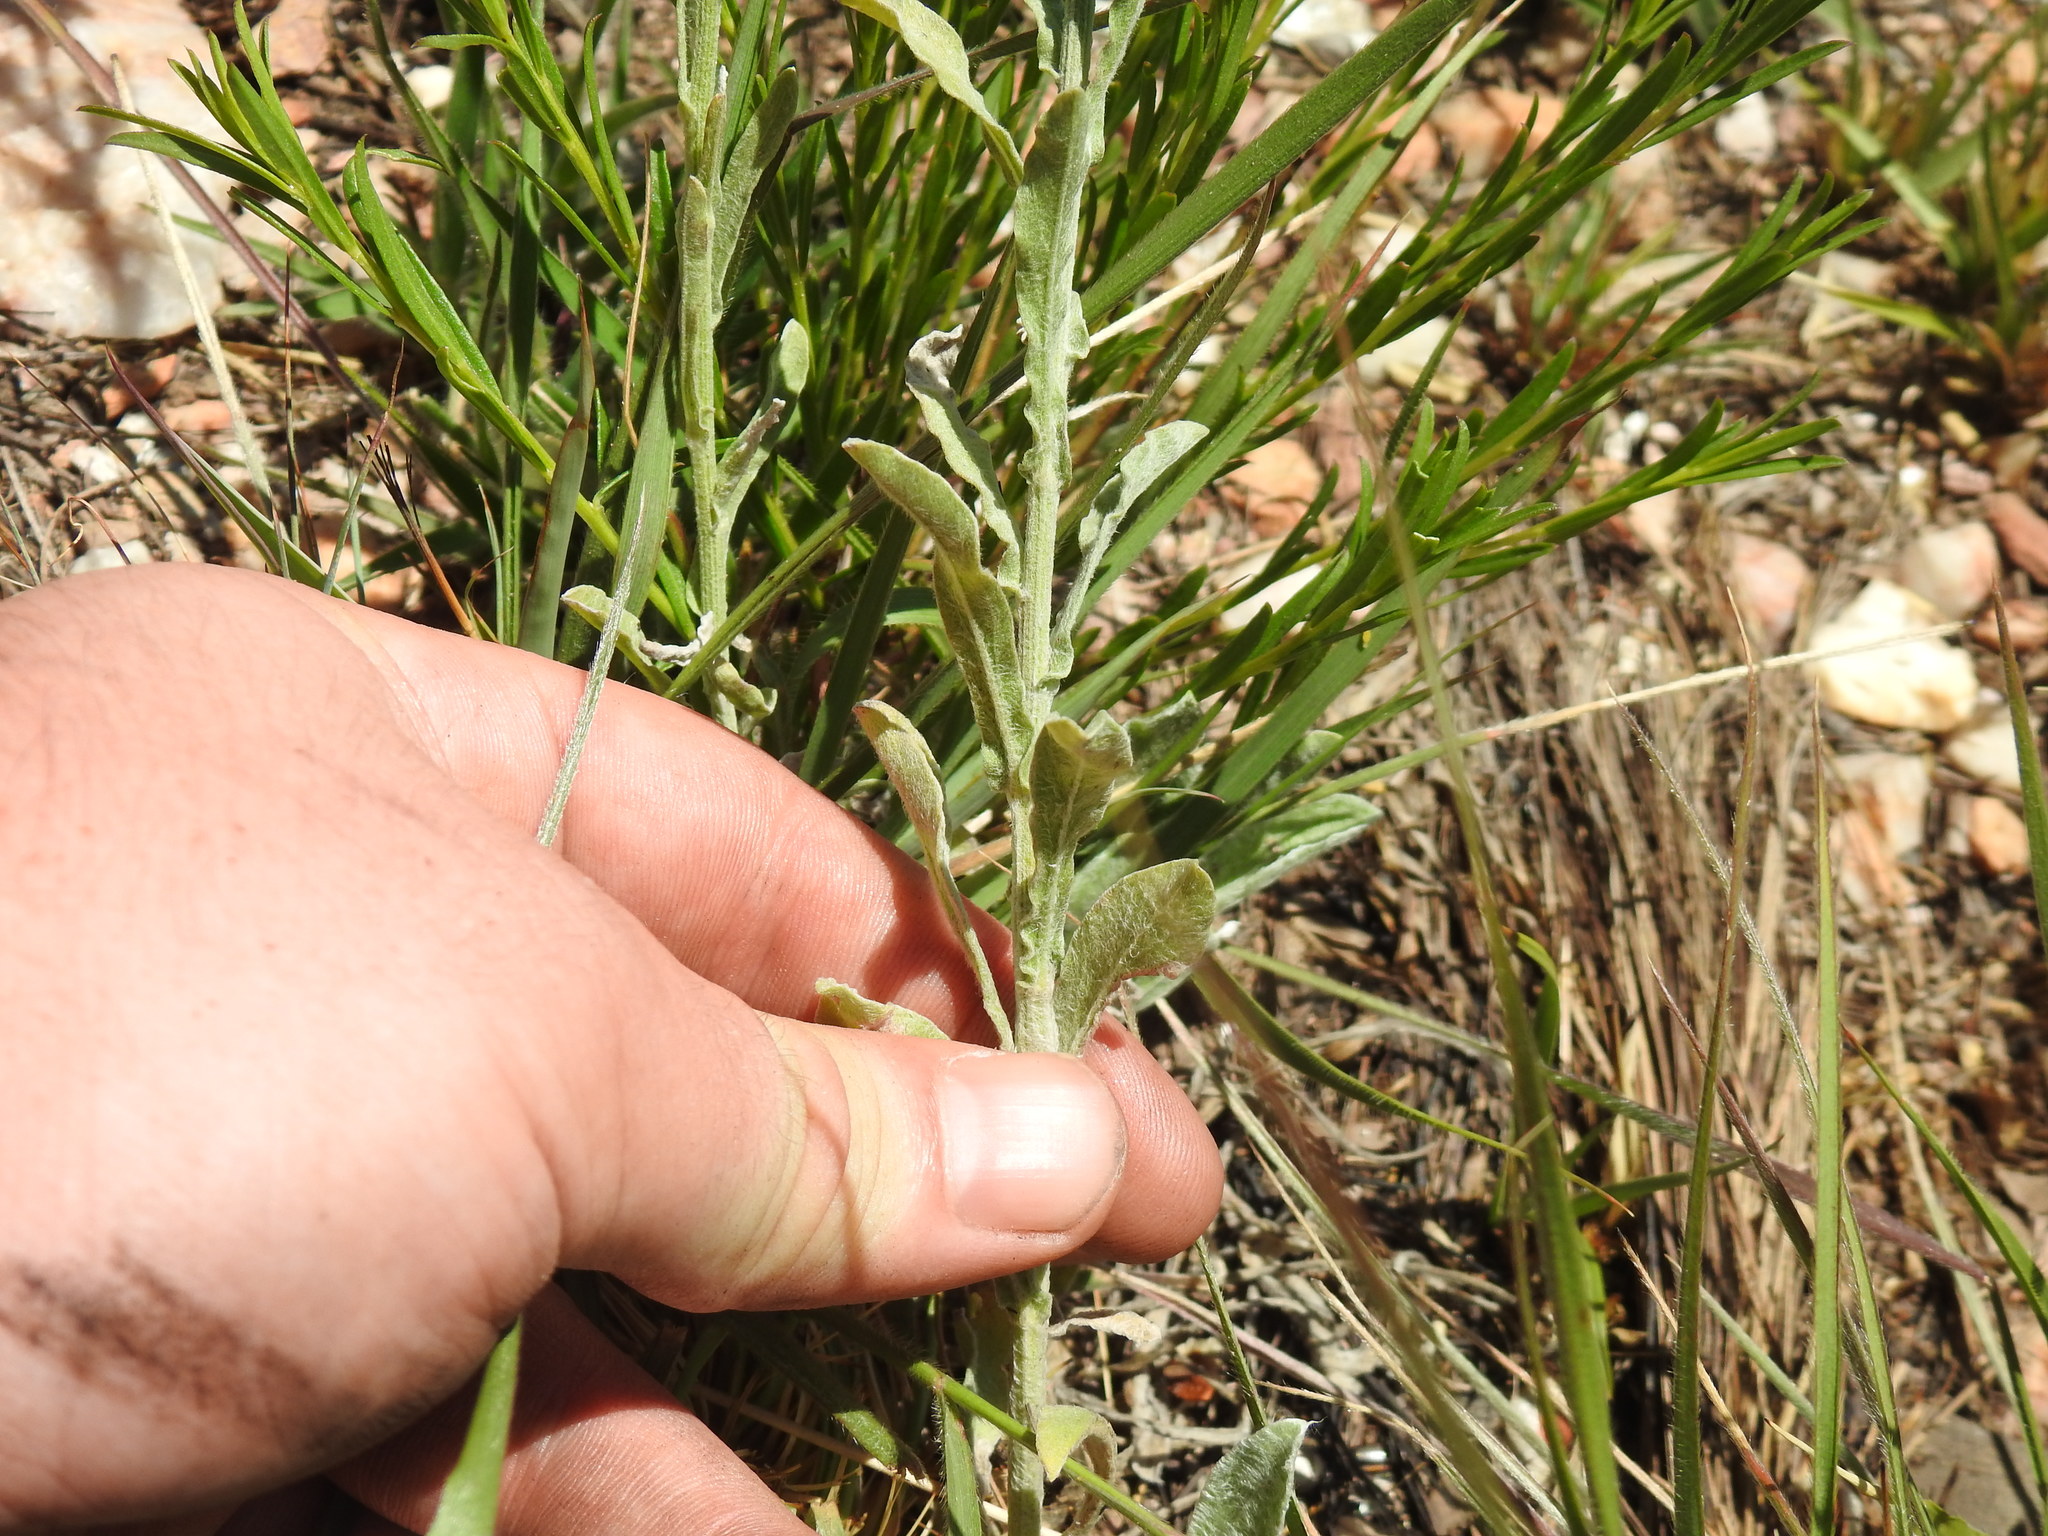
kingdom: Plantae
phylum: Tracheophyta
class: Magnoliopsida
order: Asterales
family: Asteraceae
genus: Nidorella
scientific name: Nidorella hottentotica
